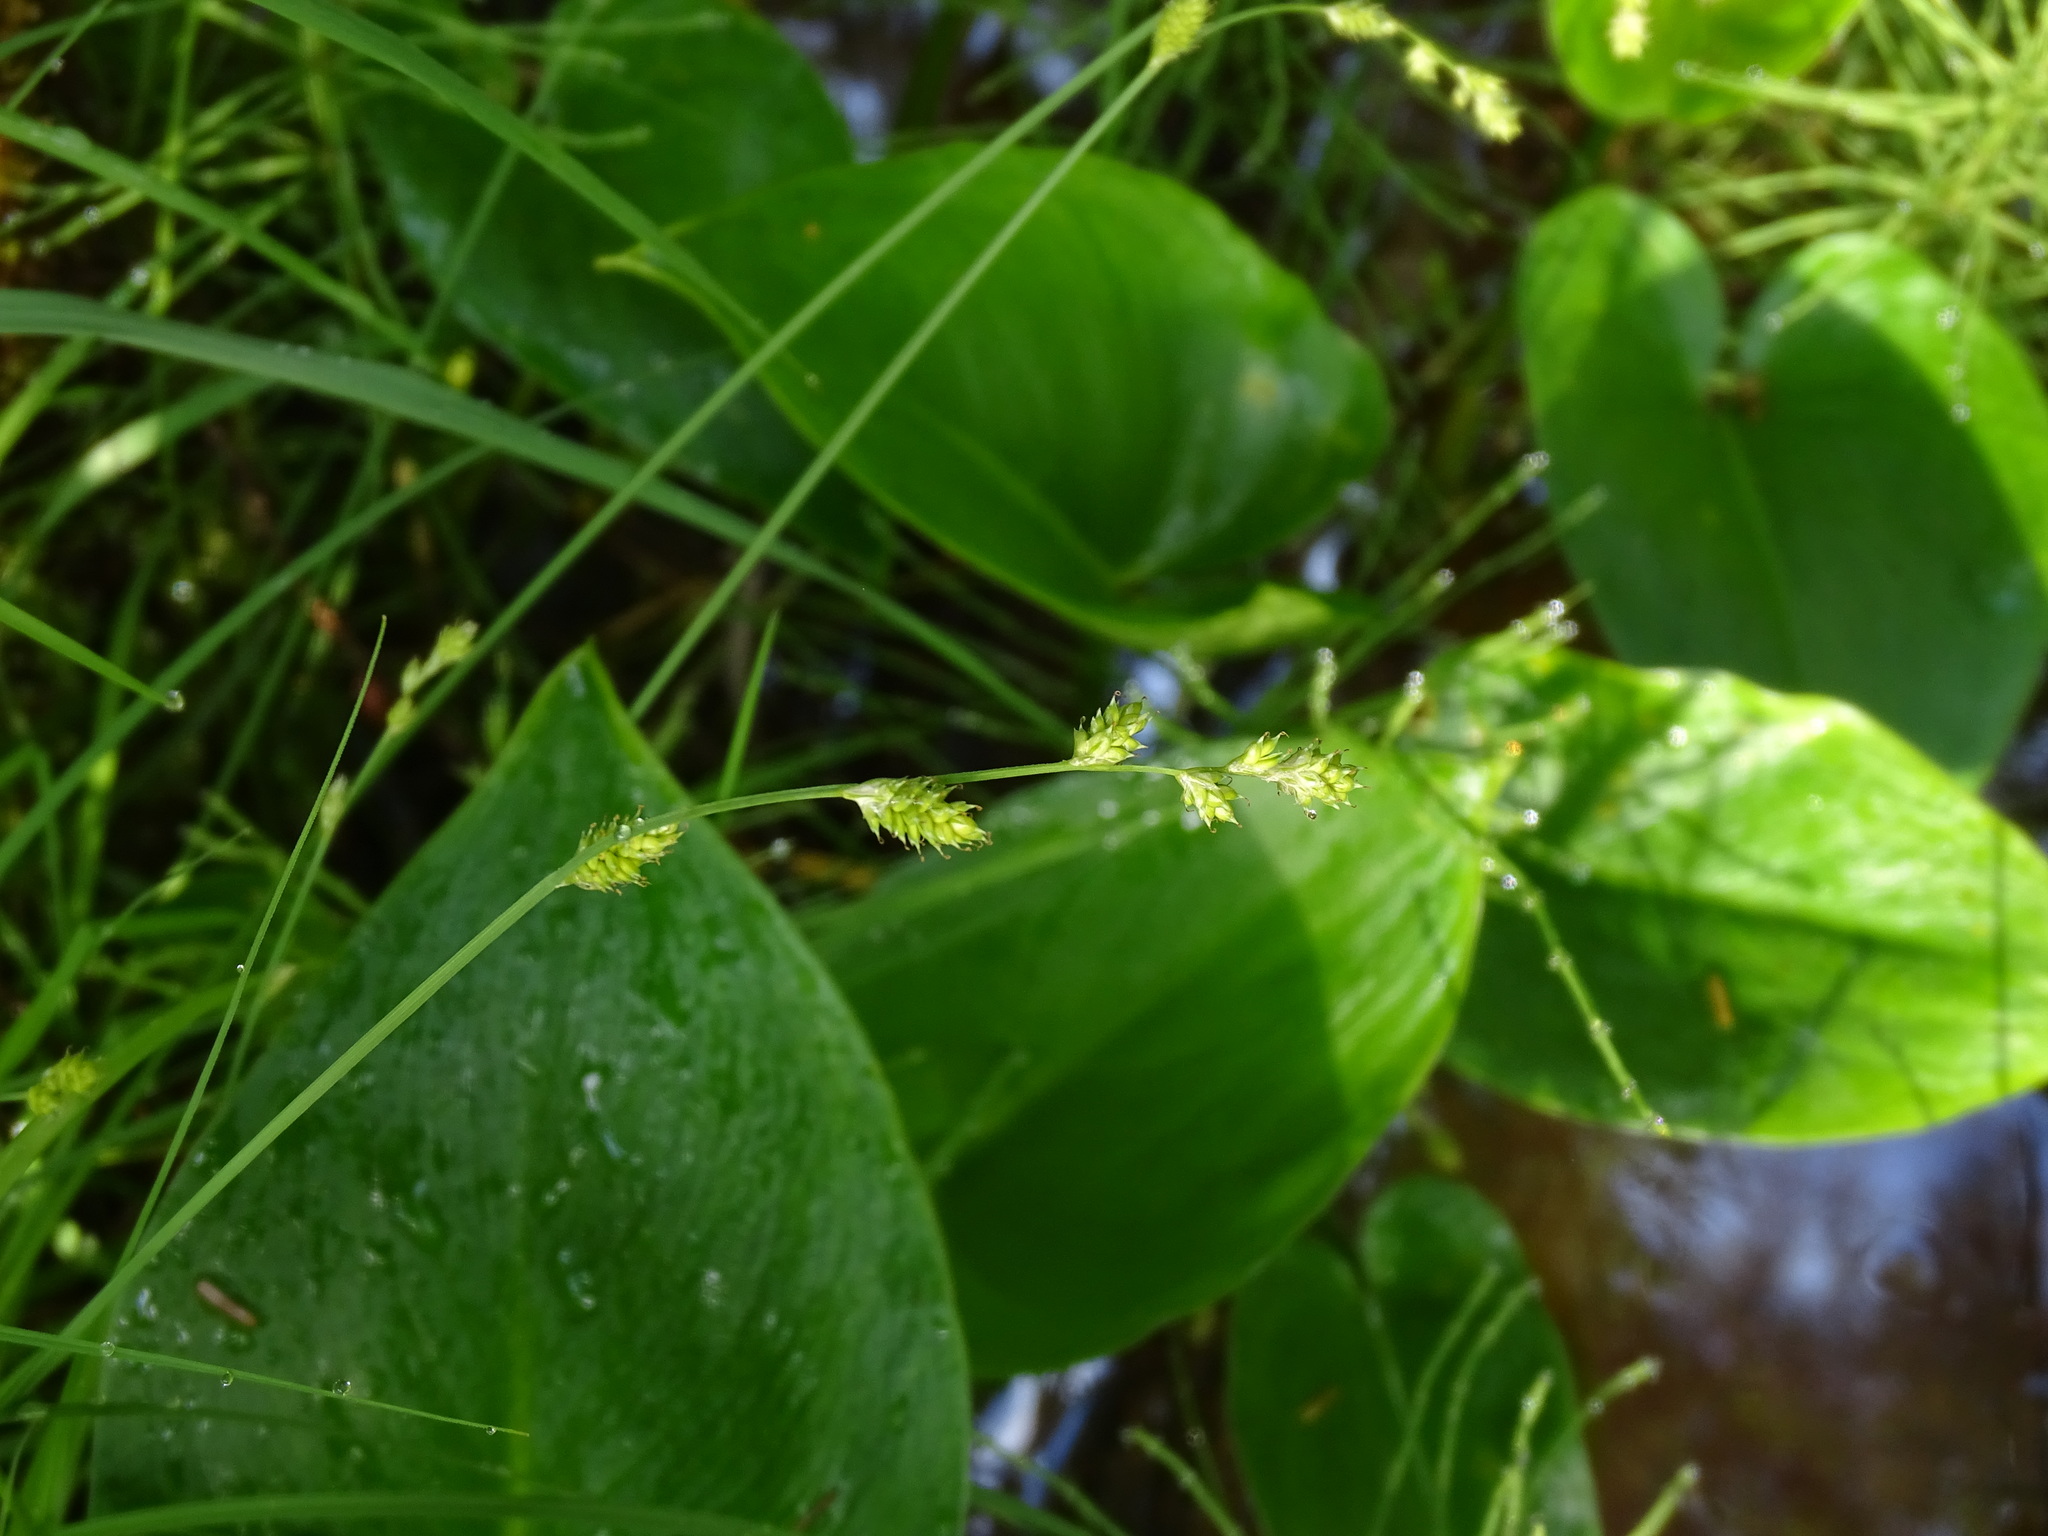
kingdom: Plantae
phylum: Tracheophyta
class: Liliopsida
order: Poales
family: Cyperaceae
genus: Carex
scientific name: Carex canescens
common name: White sedge
